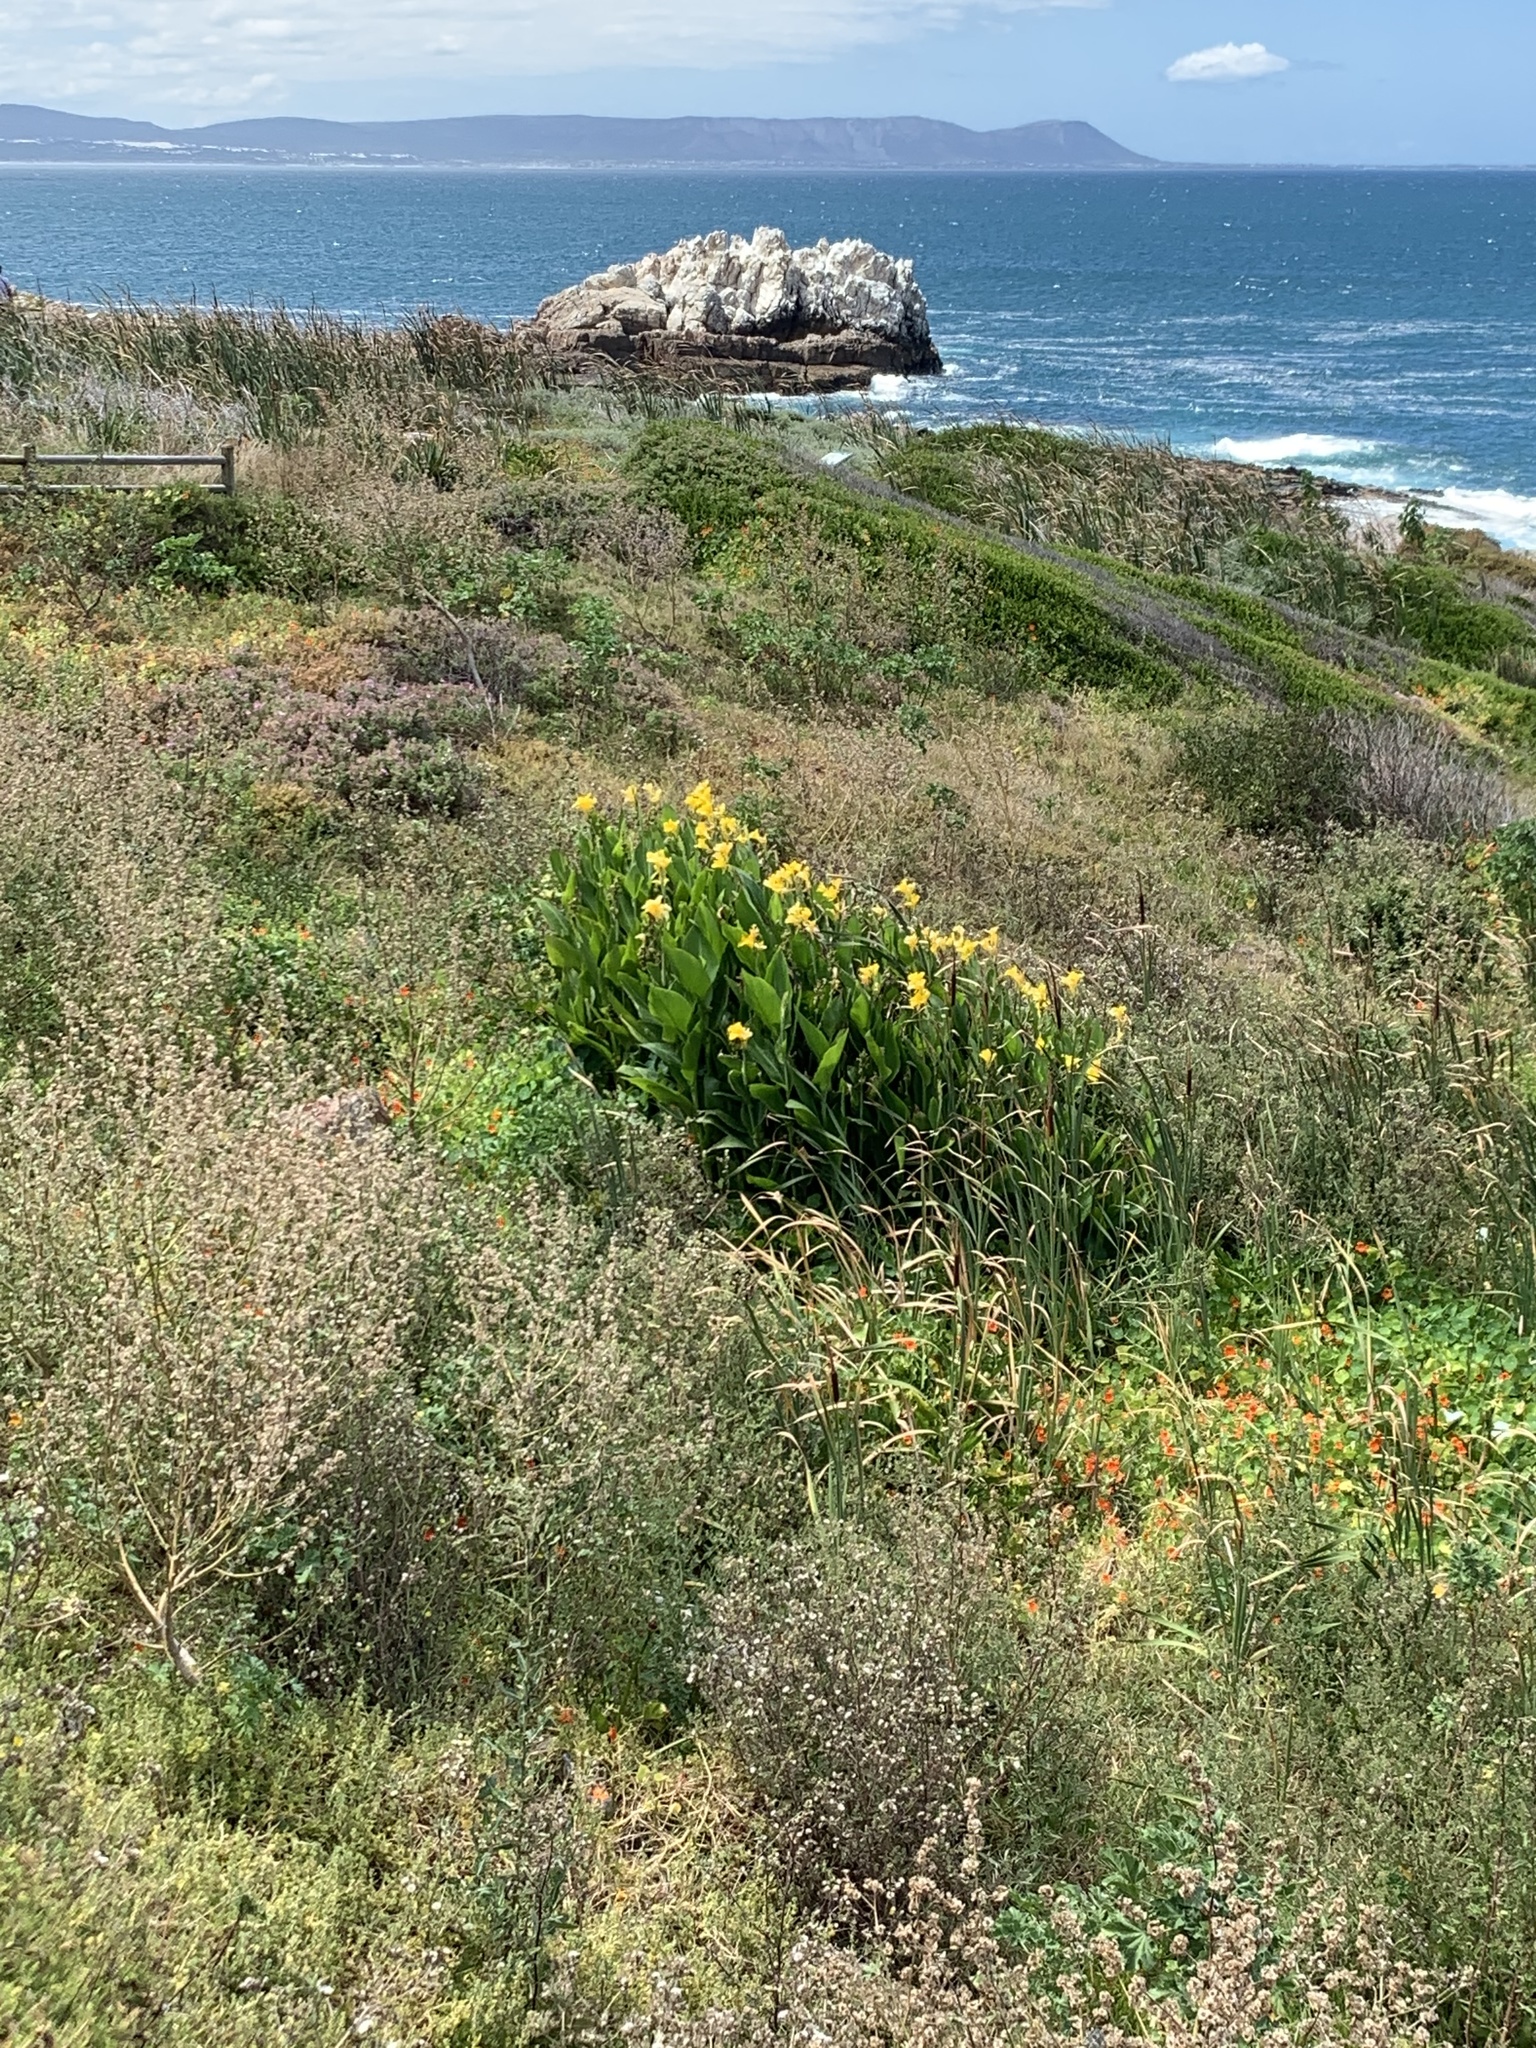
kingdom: Plantae
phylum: Tracheophyta
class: Liliopsida
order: Zingiberales
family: Cannaceae
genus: Canna
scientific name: Canna hybrida
